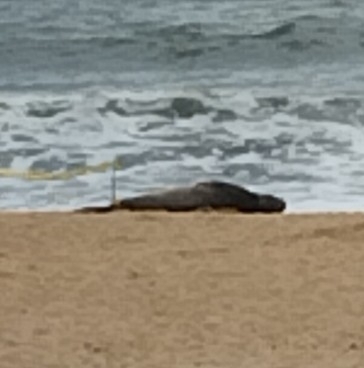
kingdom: Animalia
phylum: Chordata
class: Mammalia
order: Carnivora
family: Phocidae
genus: Mirounga
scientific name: Mirounga leonina
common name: Southern elephant seal
